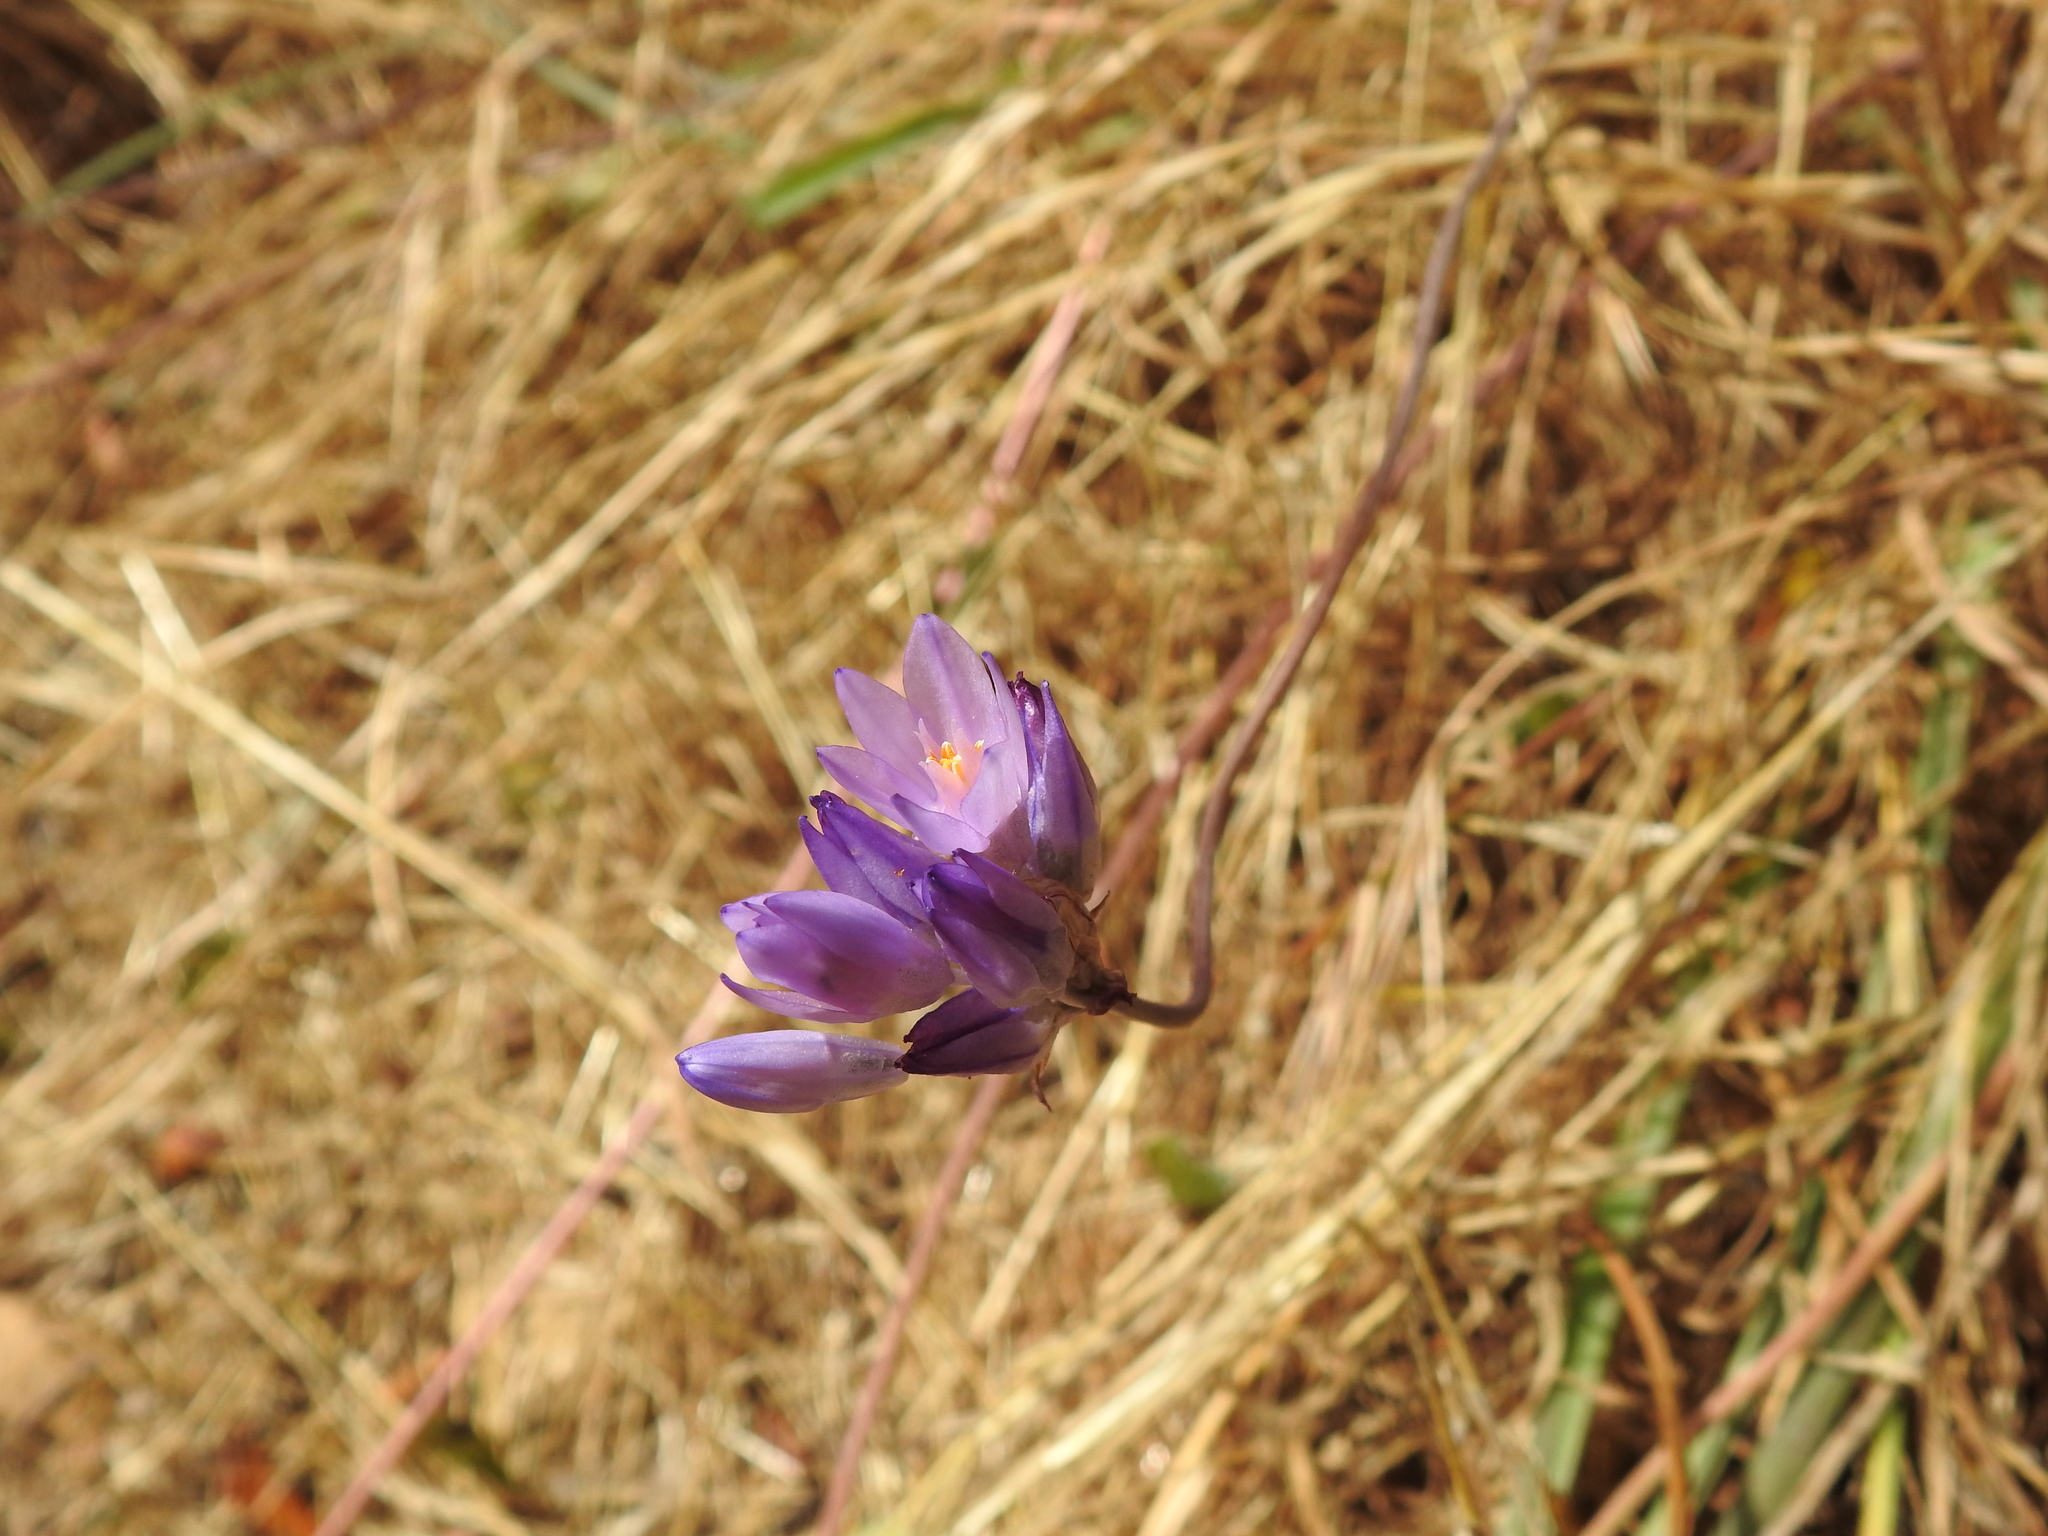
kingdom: Plantae
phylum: Tracheophyta
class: Liliopsida
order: Asparagales
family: Asparagaceae
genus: Dipterostemon
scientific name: Dipterostemon capitatus
